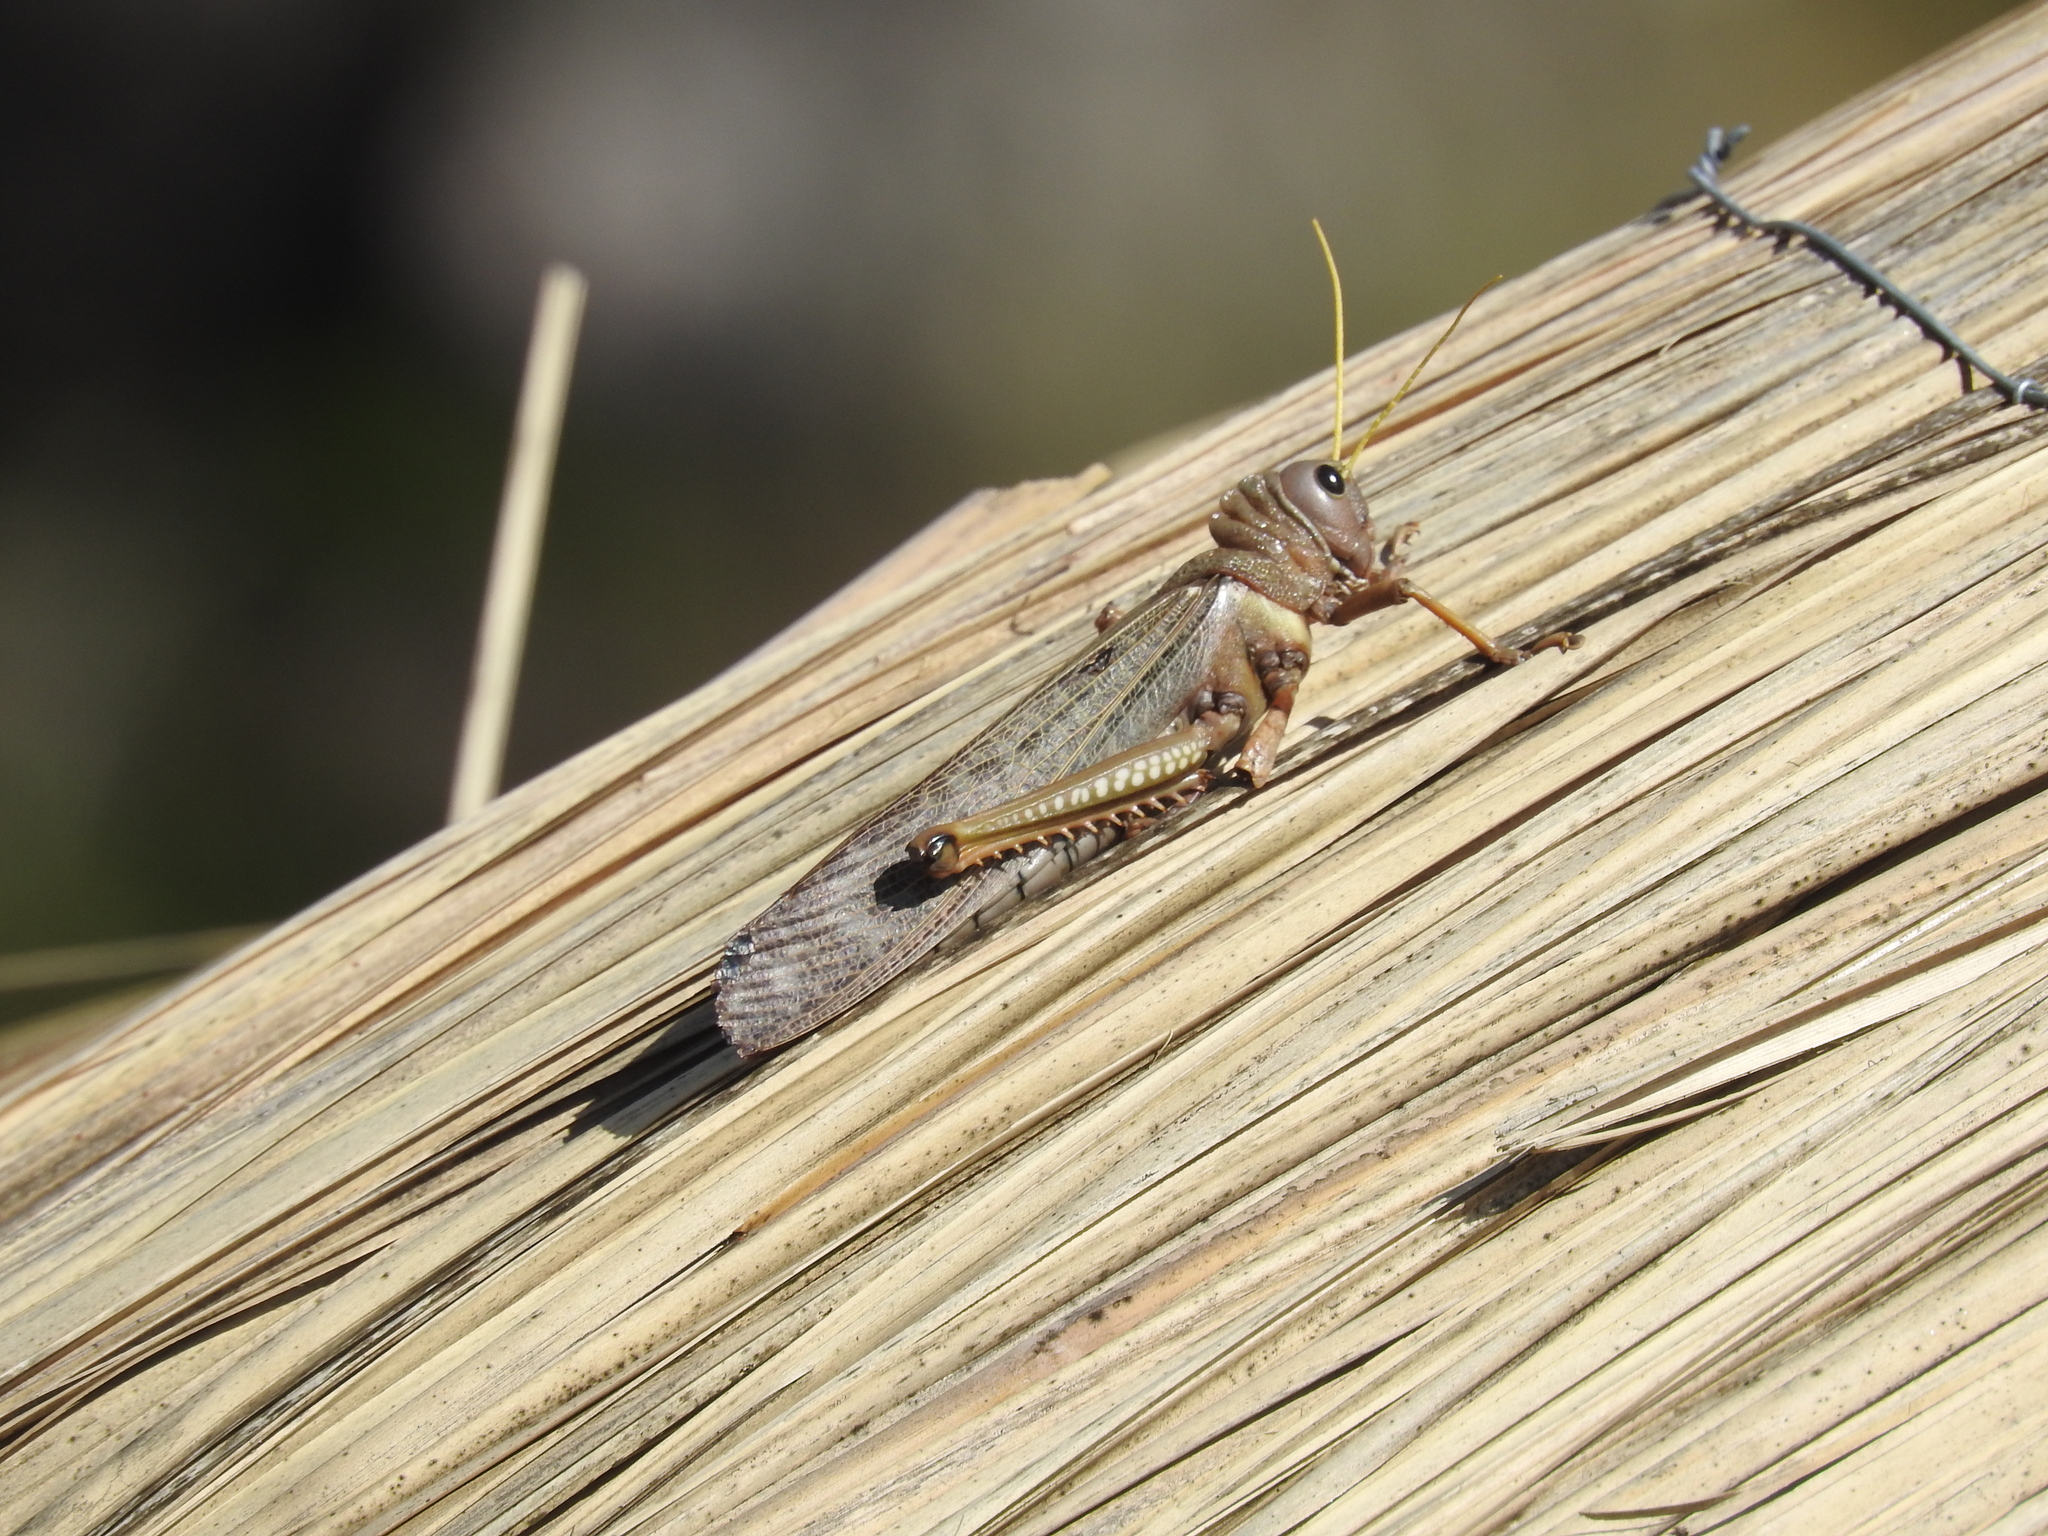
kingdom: Animalia
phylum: Arthropoda
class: Insecta
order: Orthoptera
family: Romaleidae
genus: Tropidacris
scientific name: Tropidacris collaris
